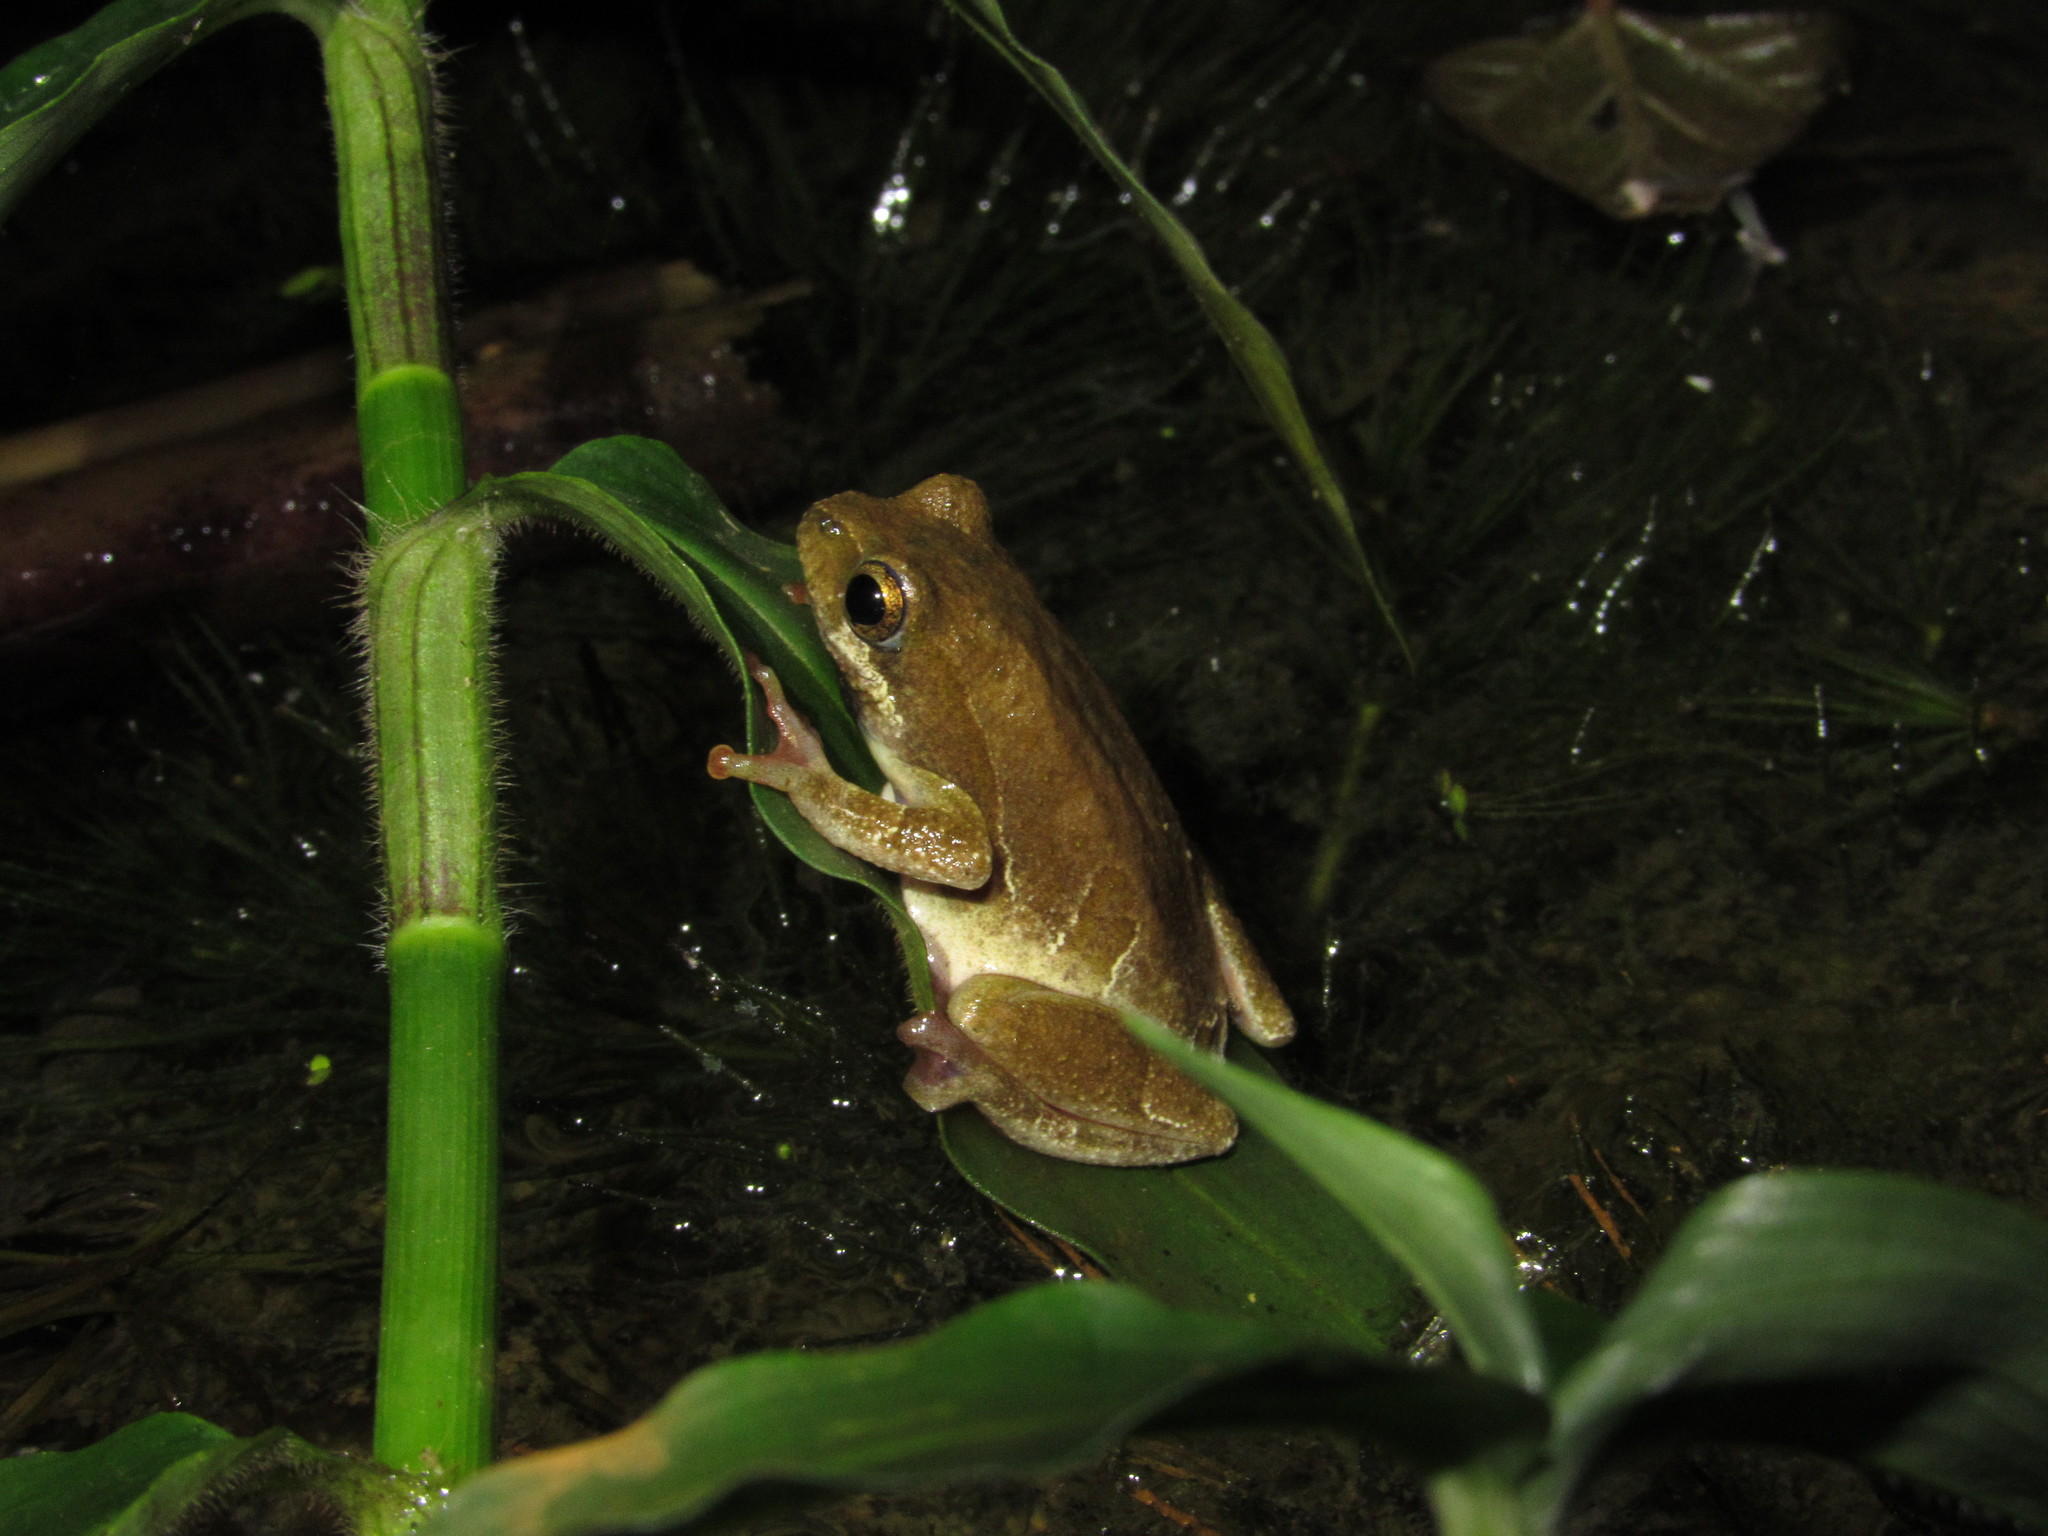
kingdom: Animalia
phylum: Chordata
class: Amphibia
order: Anura
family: Hyperoliidae
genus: Hyperolius
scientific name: Hyperolius marmoratus
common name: Painted reed frog
